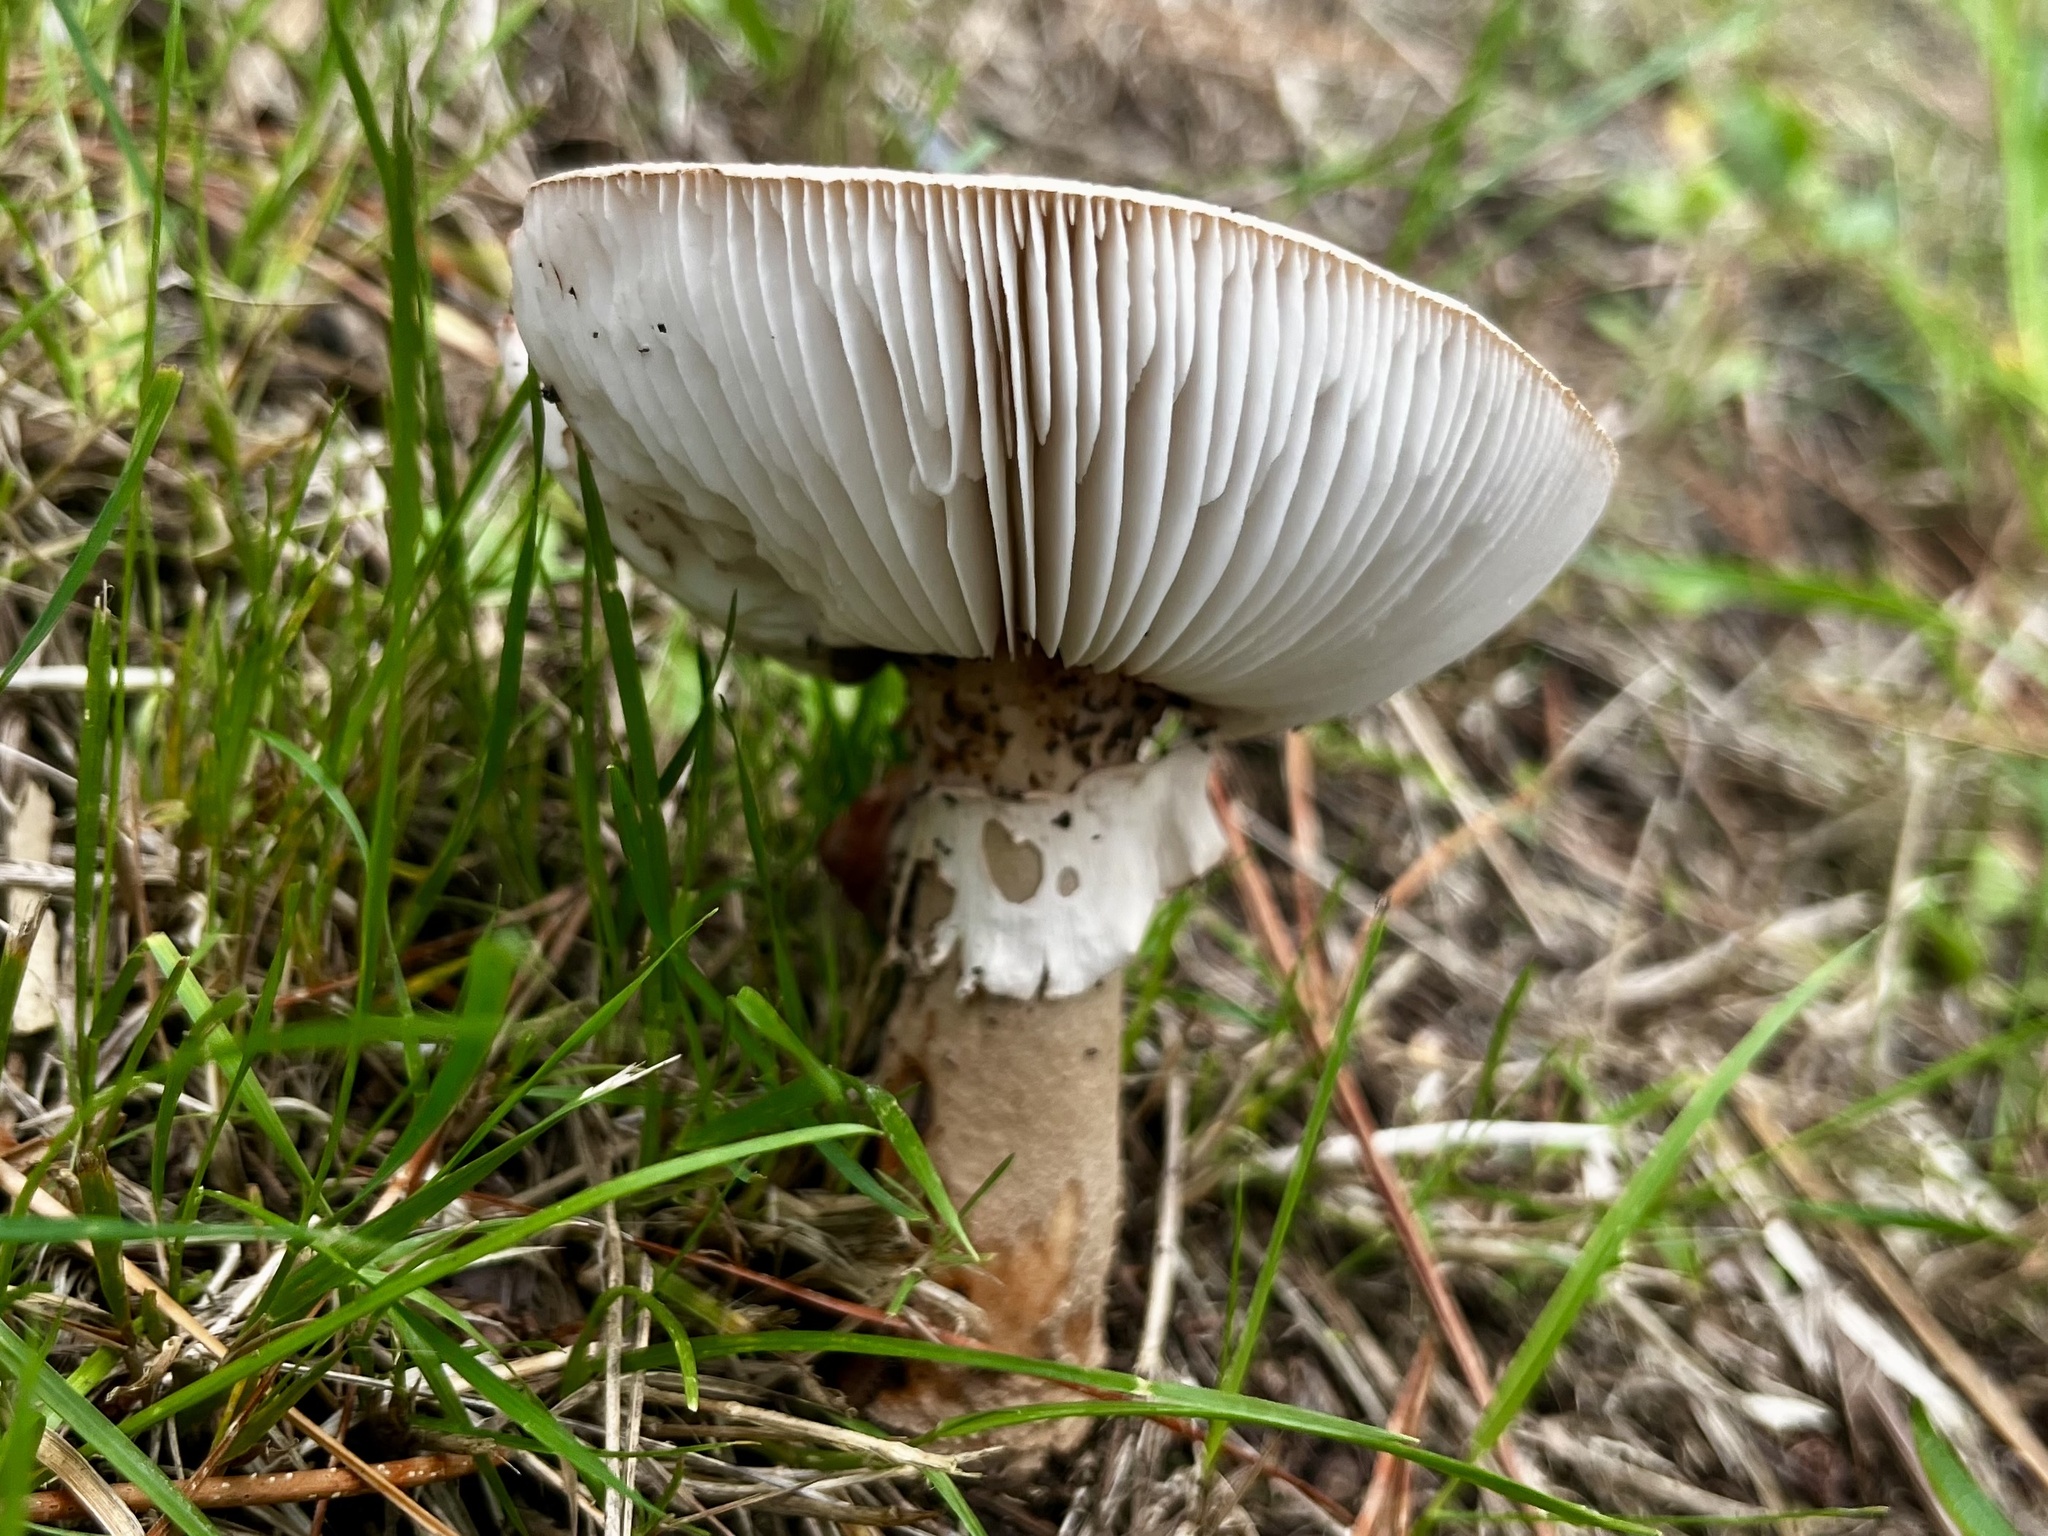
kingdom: Fungi
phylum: Basidiomycota
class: Agaricomycetes
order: Agaricales
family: Amanitaceae
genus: Amanita
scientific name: Amanita rubescens
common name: Blusher
